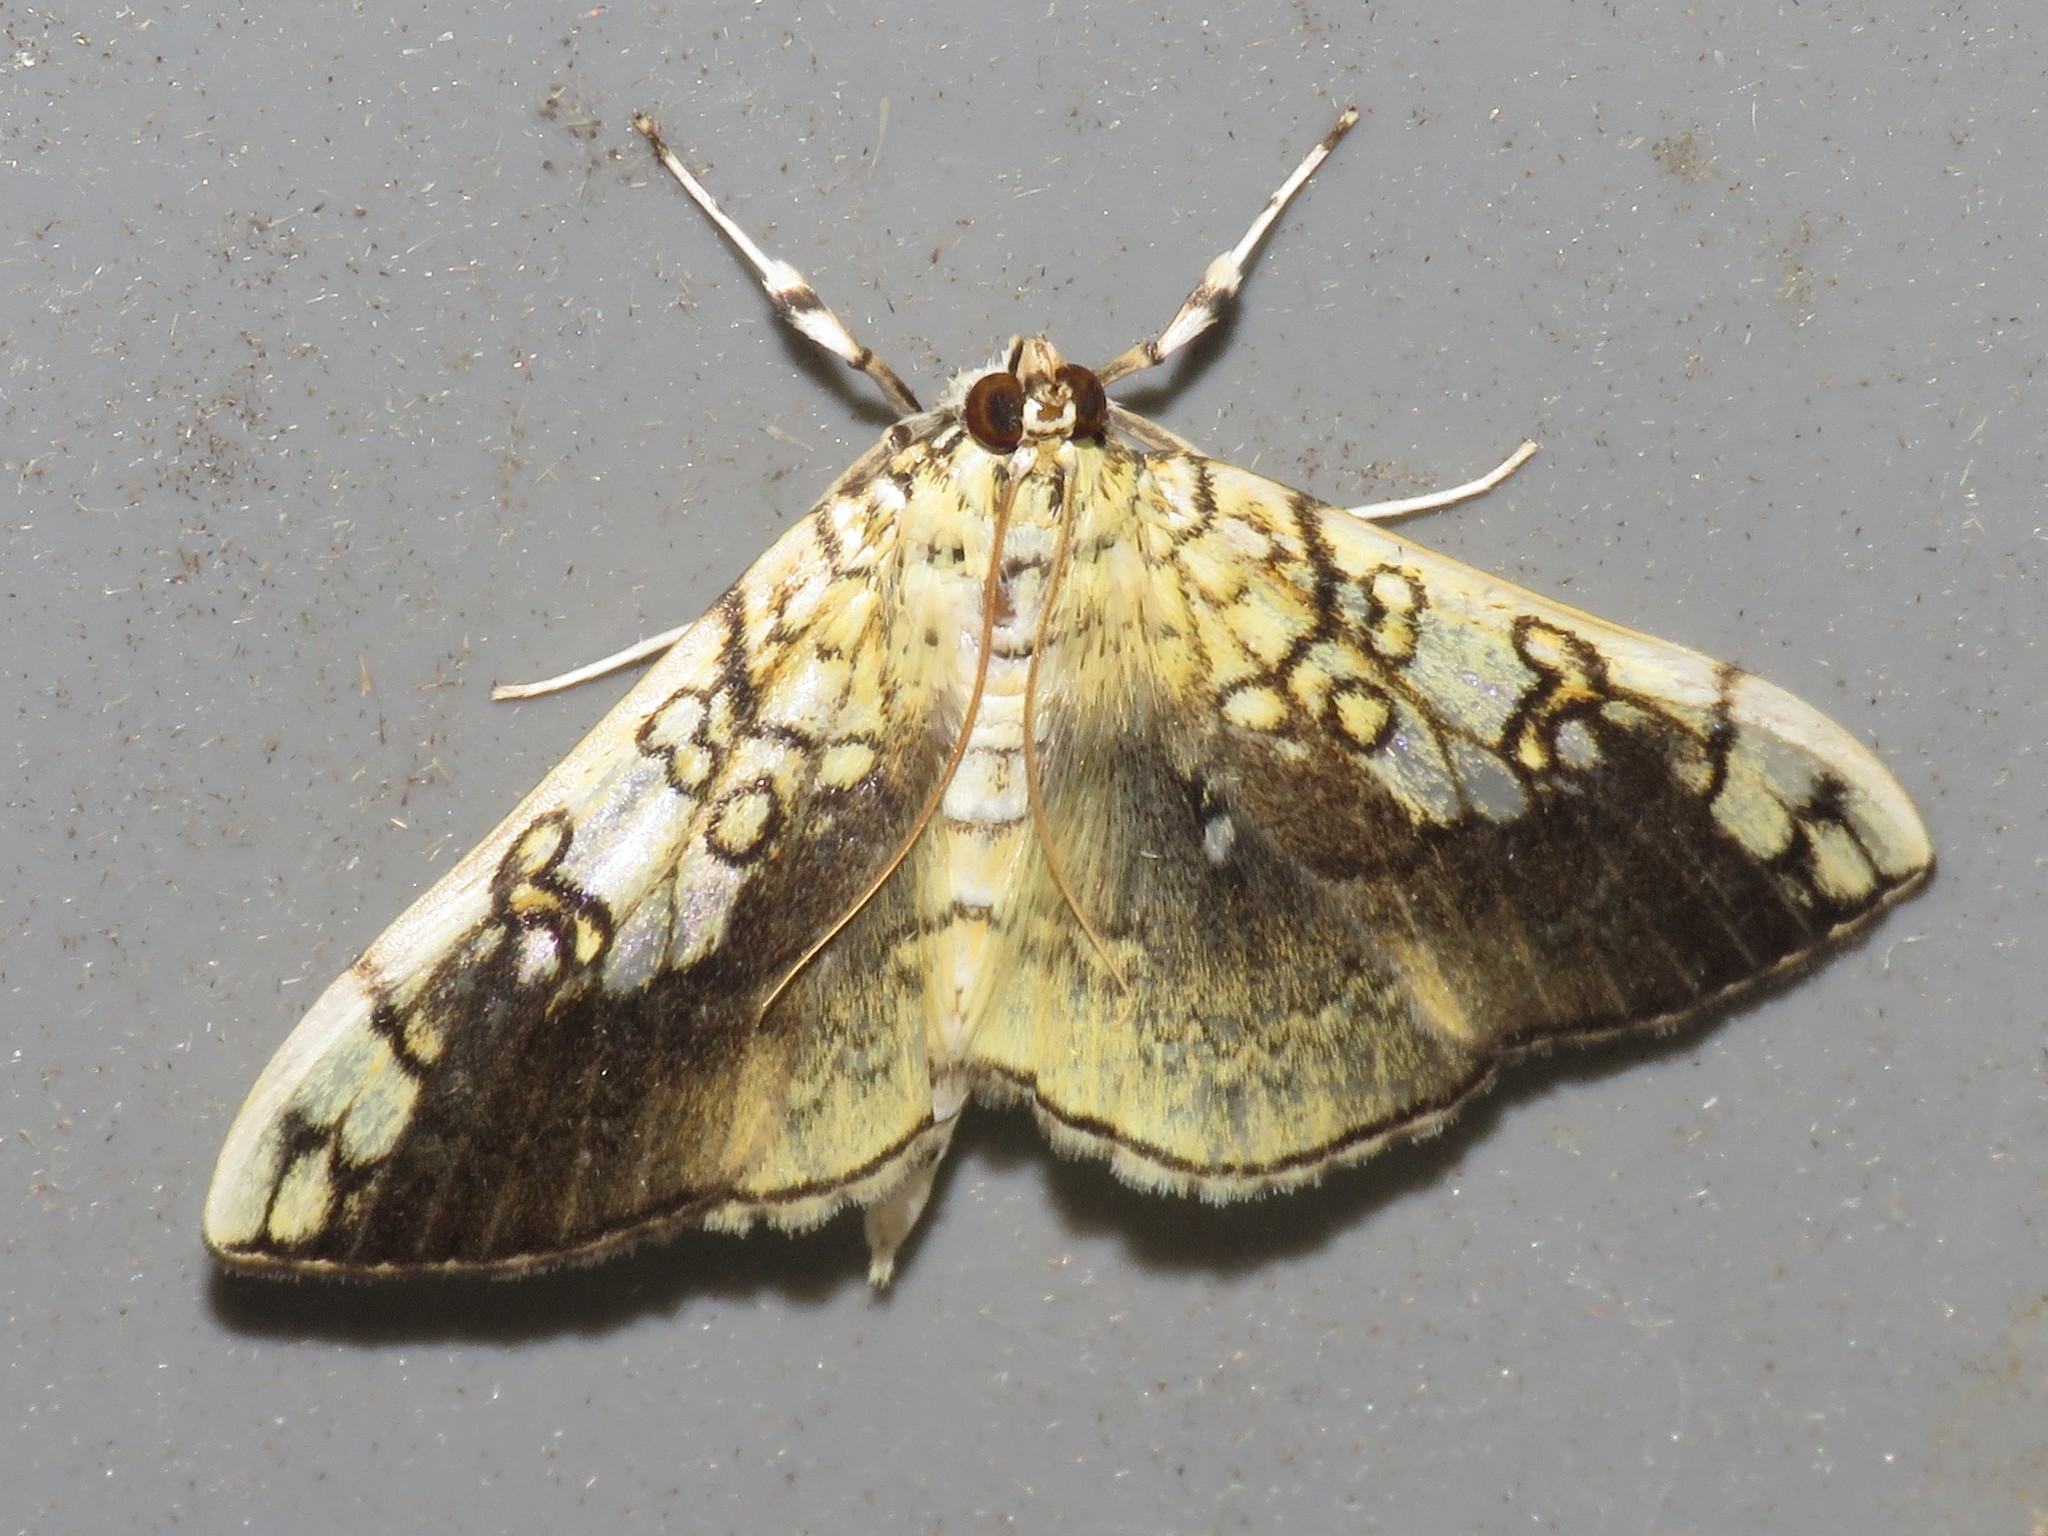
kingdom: Animalia
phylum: Arthropoda
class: Insecta
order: Lepidoptera
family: Crambidae
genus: Pantographa
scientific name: Pantographa limata
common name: Basswood leafroller moth
